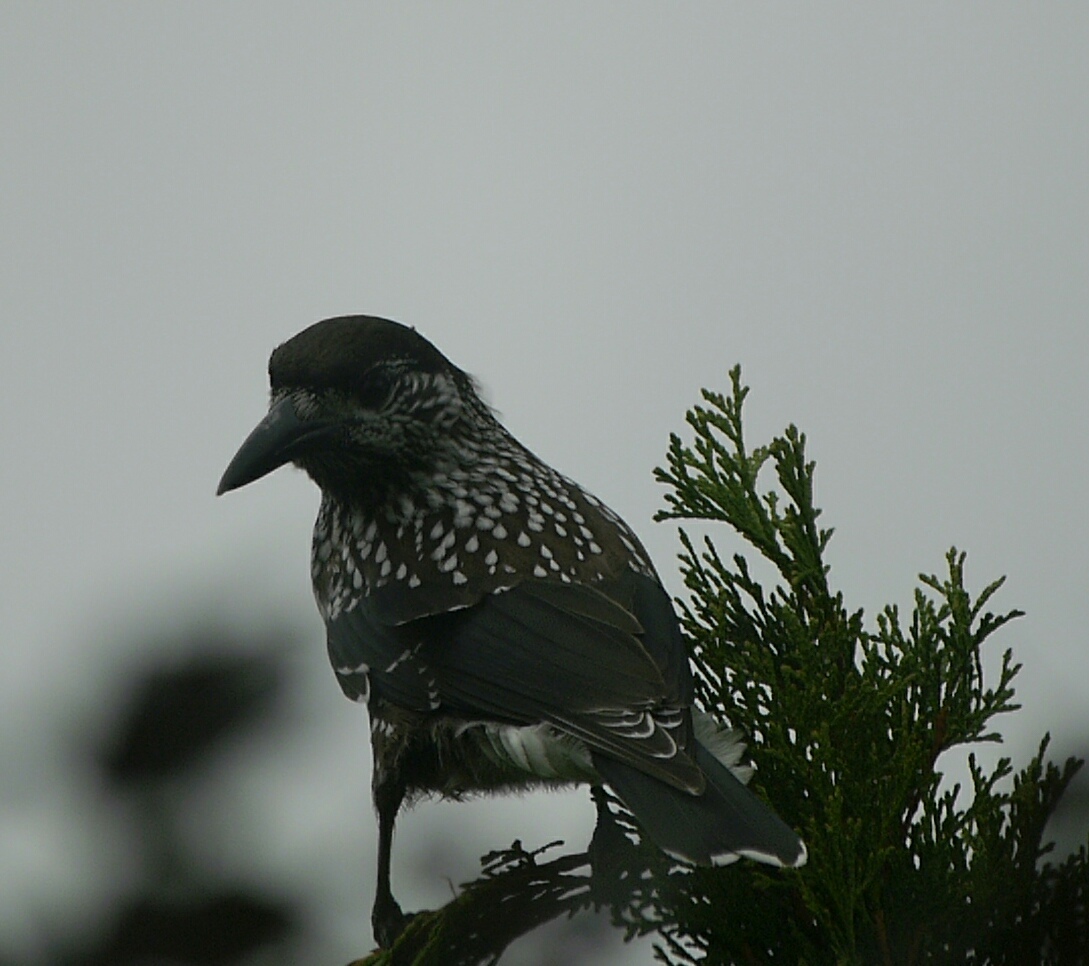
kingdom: Animalia
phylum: Chordata
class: Aves
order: Passeriformes
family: Corvidae
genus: Nucifraga
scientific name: Nucifraga caryocatactes
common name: Spotted nutcracker
